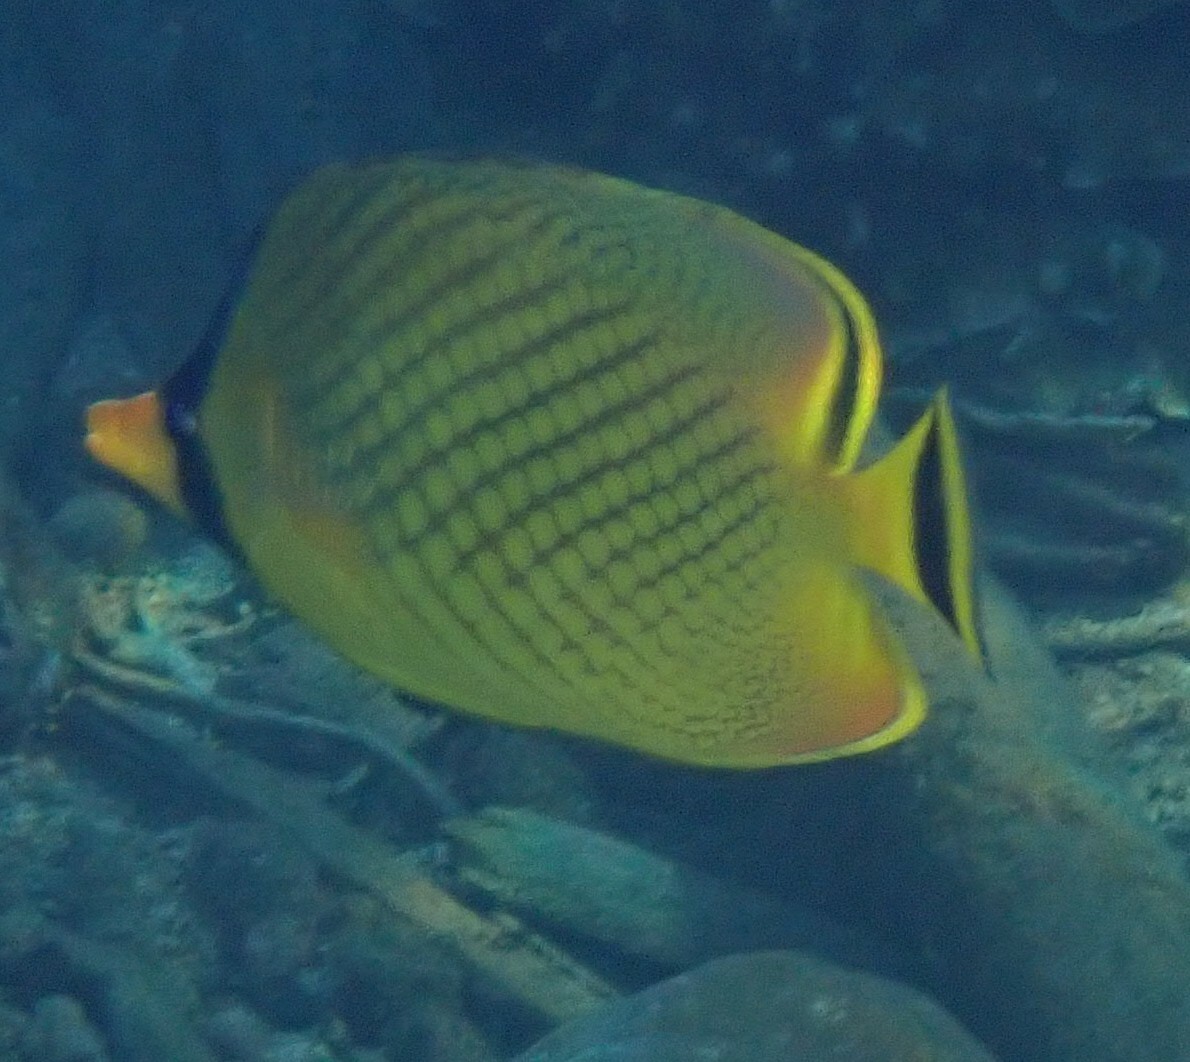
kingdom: Animalia
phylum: Chordata
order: Perciformes
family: Chaetodontidae
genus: Chaetodon
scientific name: Chaetodon rafflesii
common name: Latticed butterflyfish
